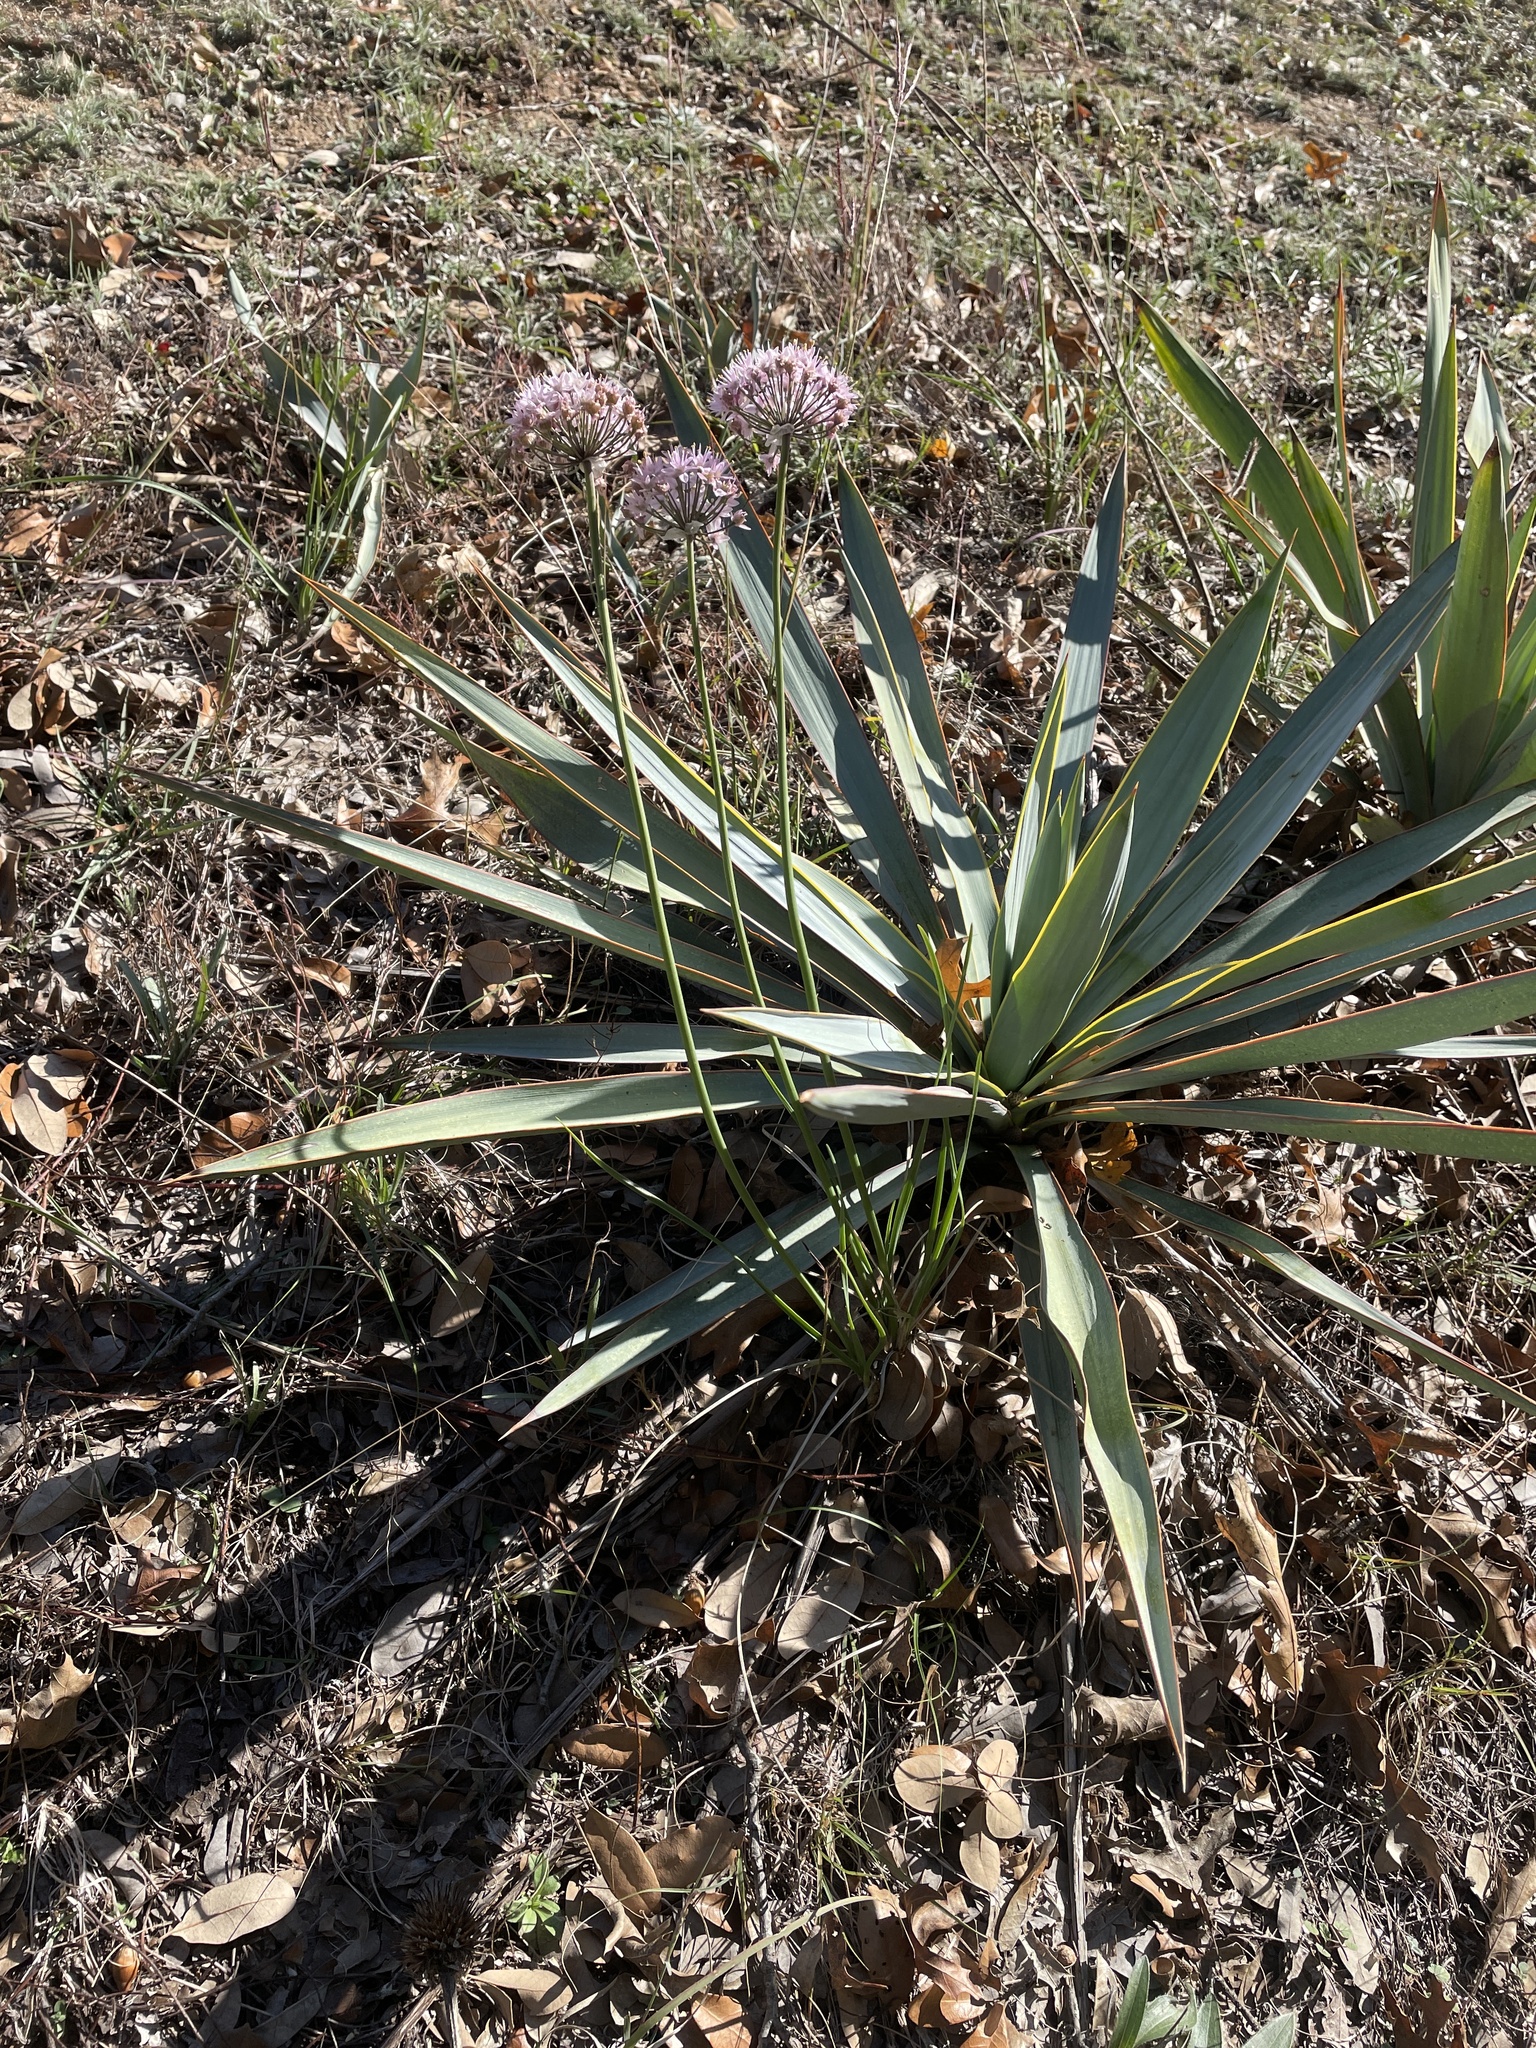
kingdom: Plantae
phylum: Tracheophyta
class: Liliopsida
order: Asparagales
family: Amaryllidaceae
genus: Allium
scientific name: Allium stellatum
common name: Autumn onion
